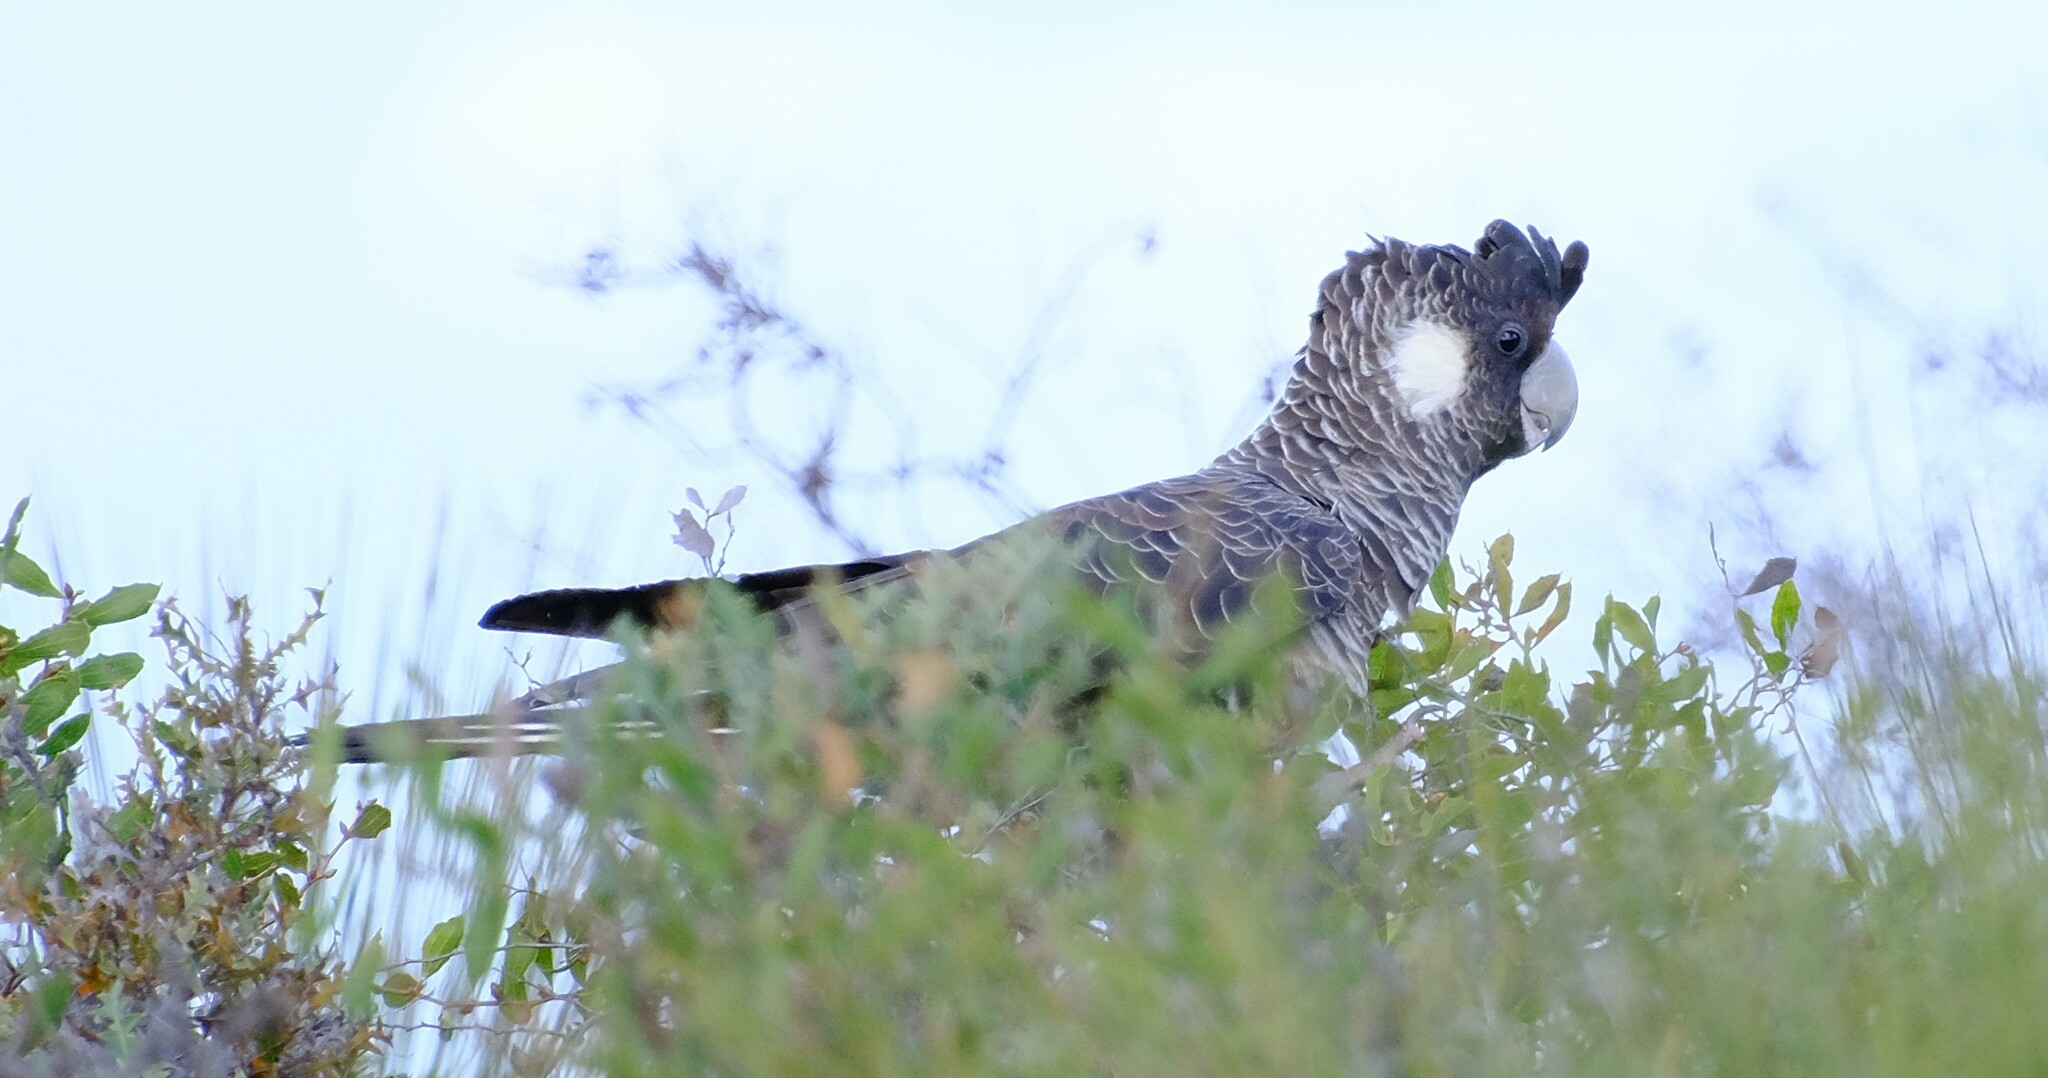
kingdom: Animalia
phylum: Chordata
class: Aves
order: Psittaciformes
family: Cacatuidae
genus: Zanda
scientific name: Zanda latirostris
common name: Short-billed black-cockatoo
